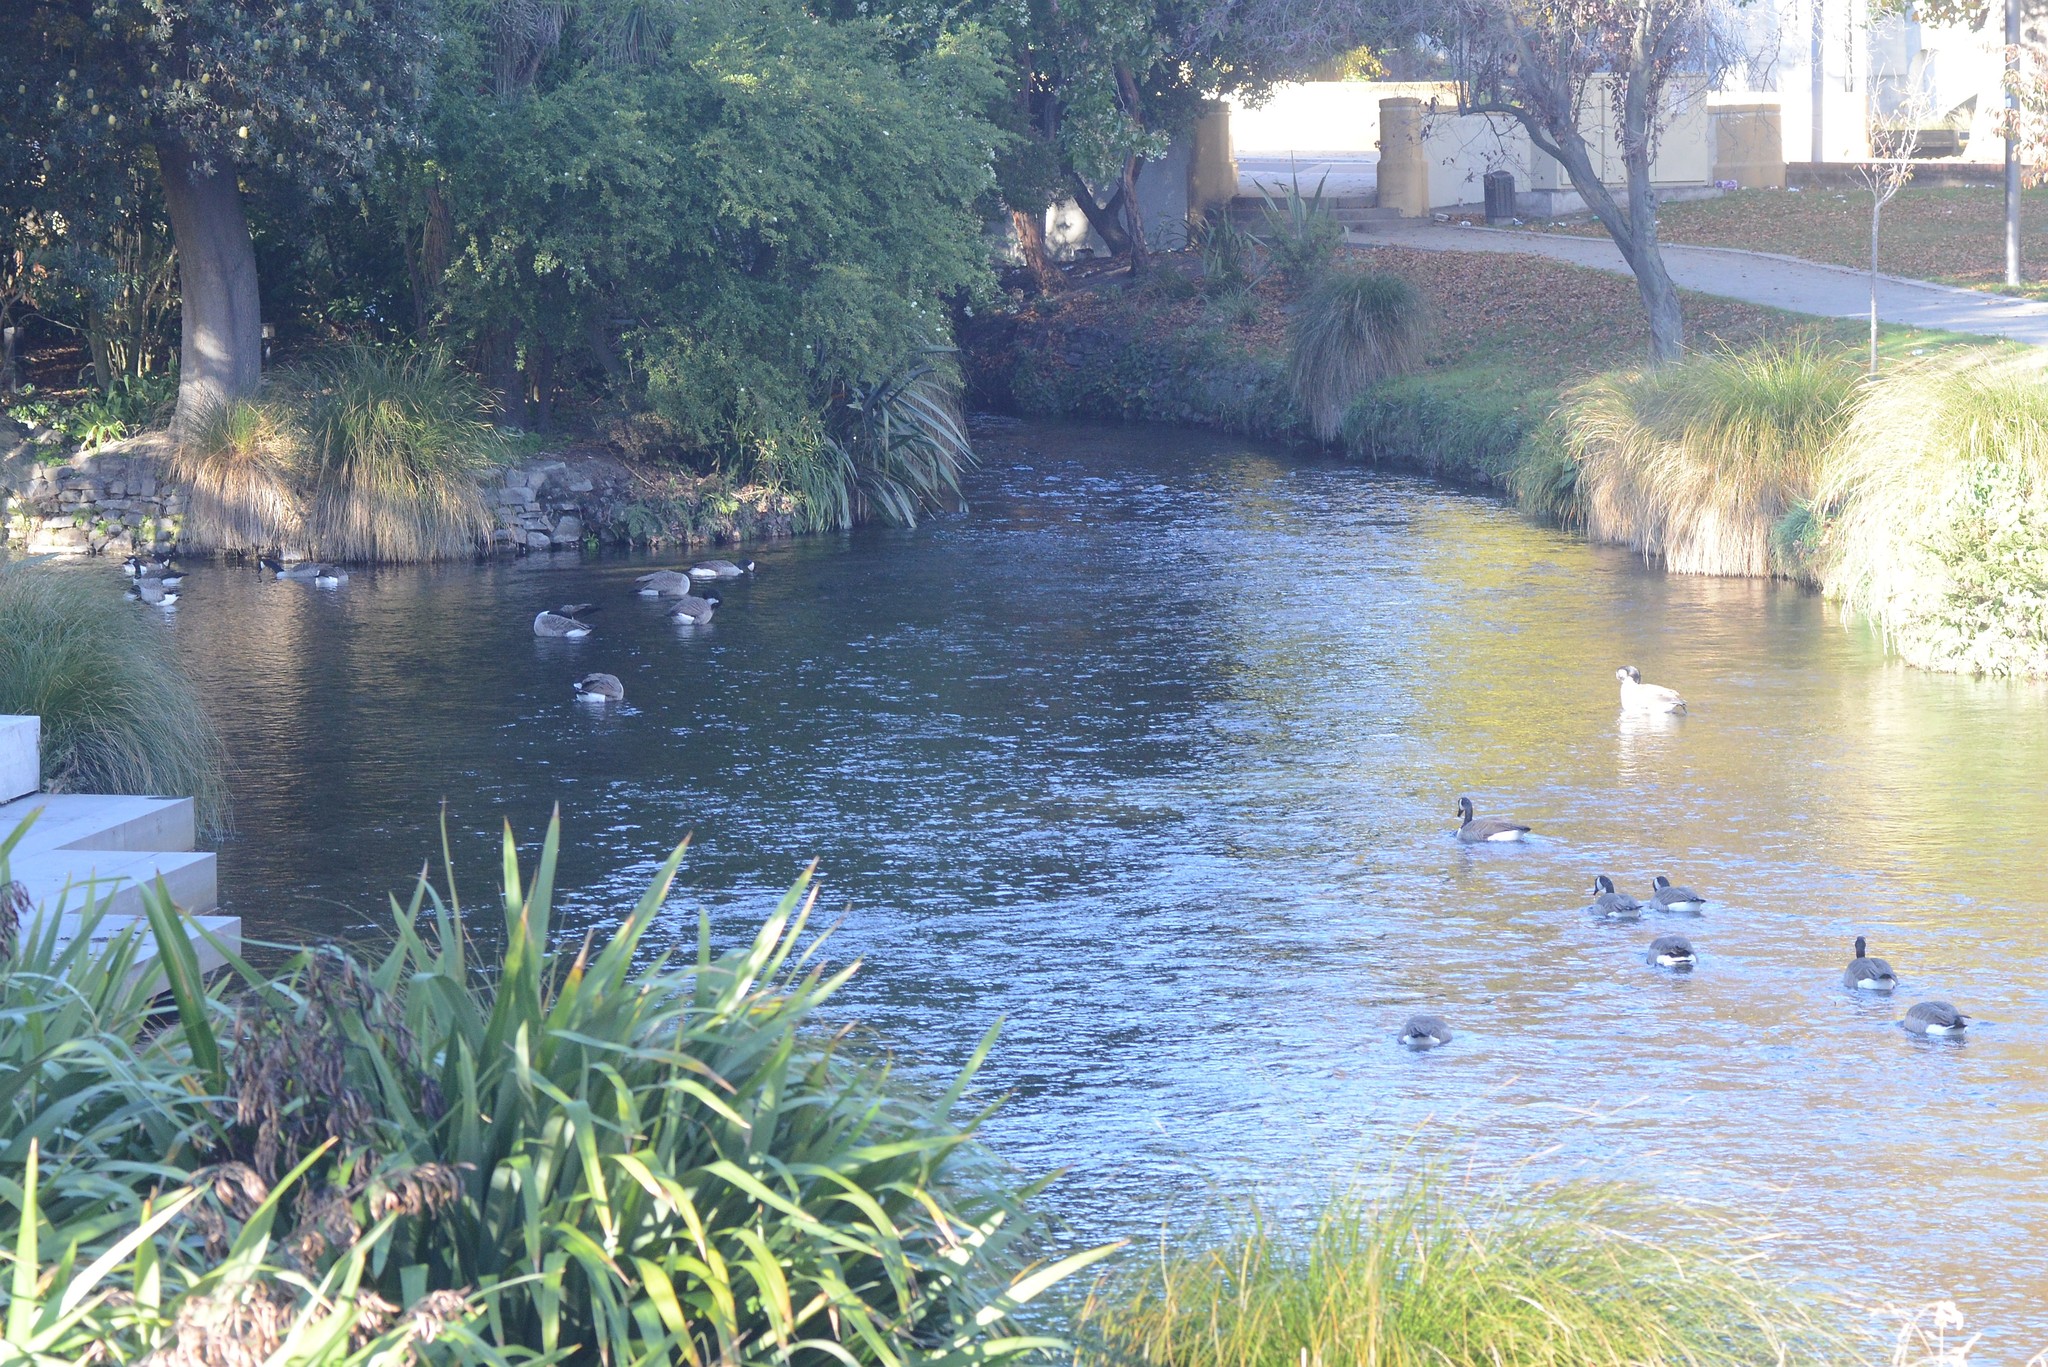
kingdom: Animalia
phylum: Chordata
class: Aves
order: Anseriformes
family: Anatidae
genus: Branta
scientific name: Branta canadensis
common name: Canada goose
